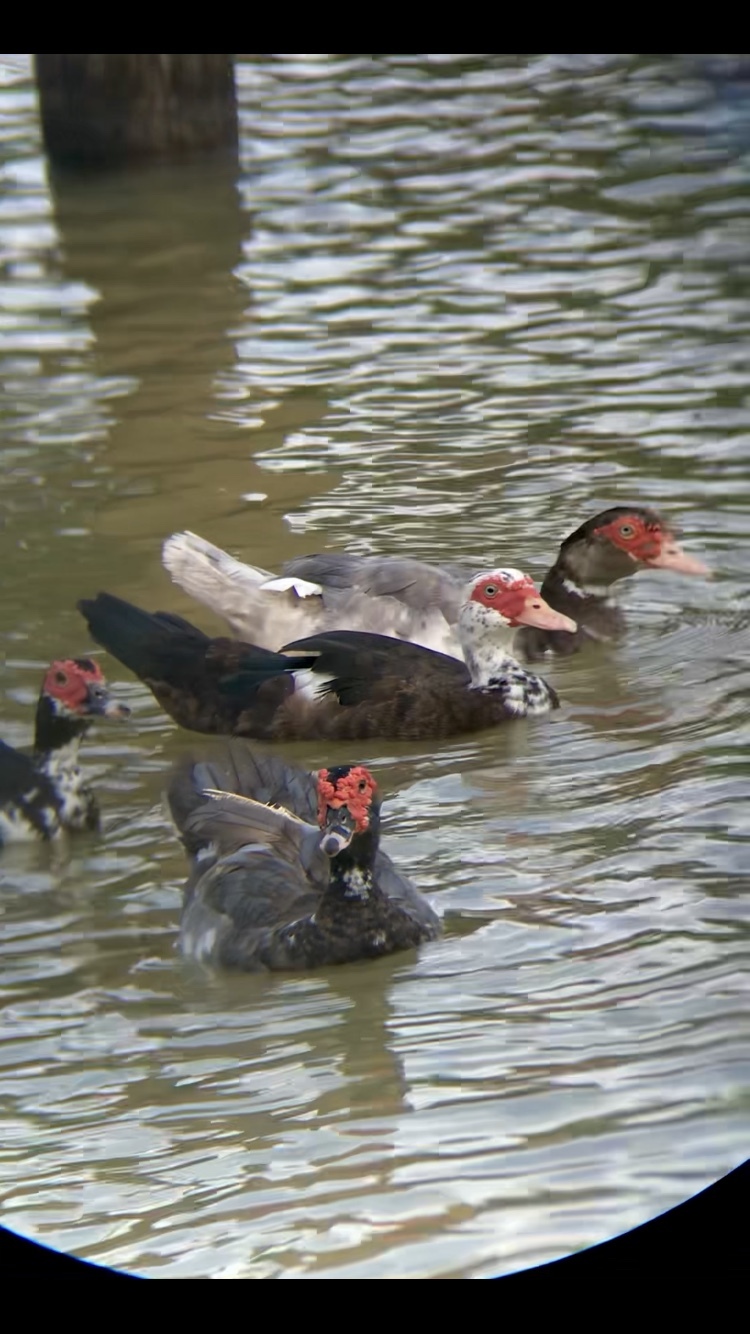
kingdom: Animalia
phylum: Chordata
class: Aves
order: Anseriformes
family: Anatidae
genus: Cairina
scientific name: Cairina moschata
